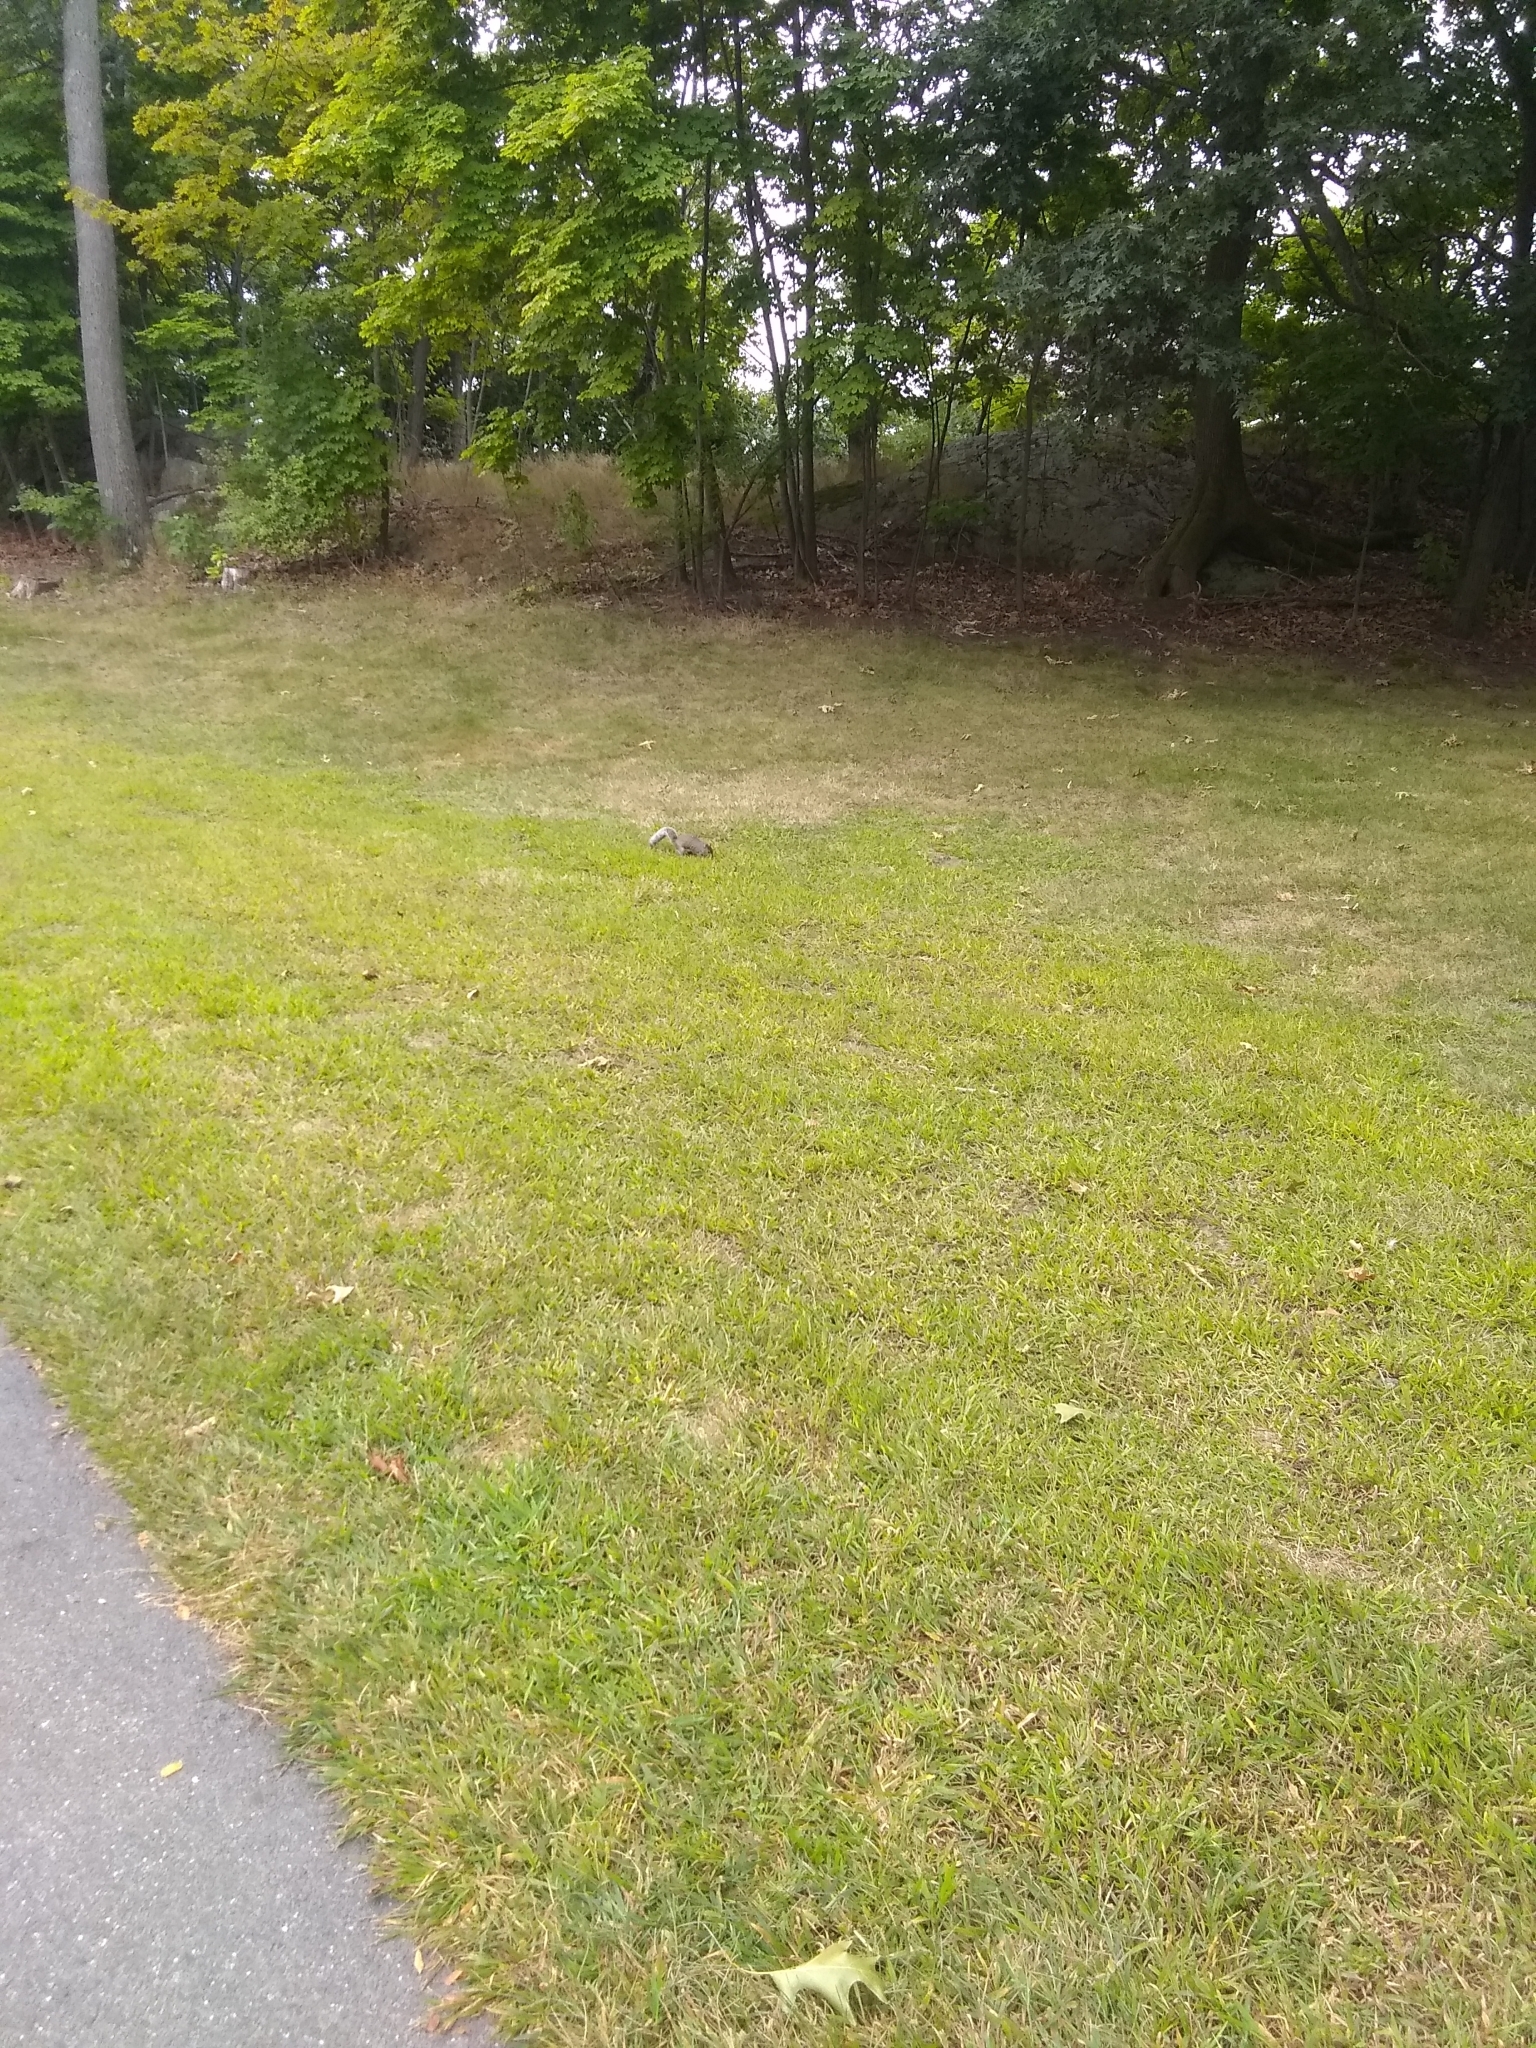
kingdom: Animalia
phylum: Chordata
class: Mammalia
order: Rodentia
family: Sciuridae
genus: Sciurus
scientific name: Sciurus carolinensis
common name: Eastern gray squirrel
